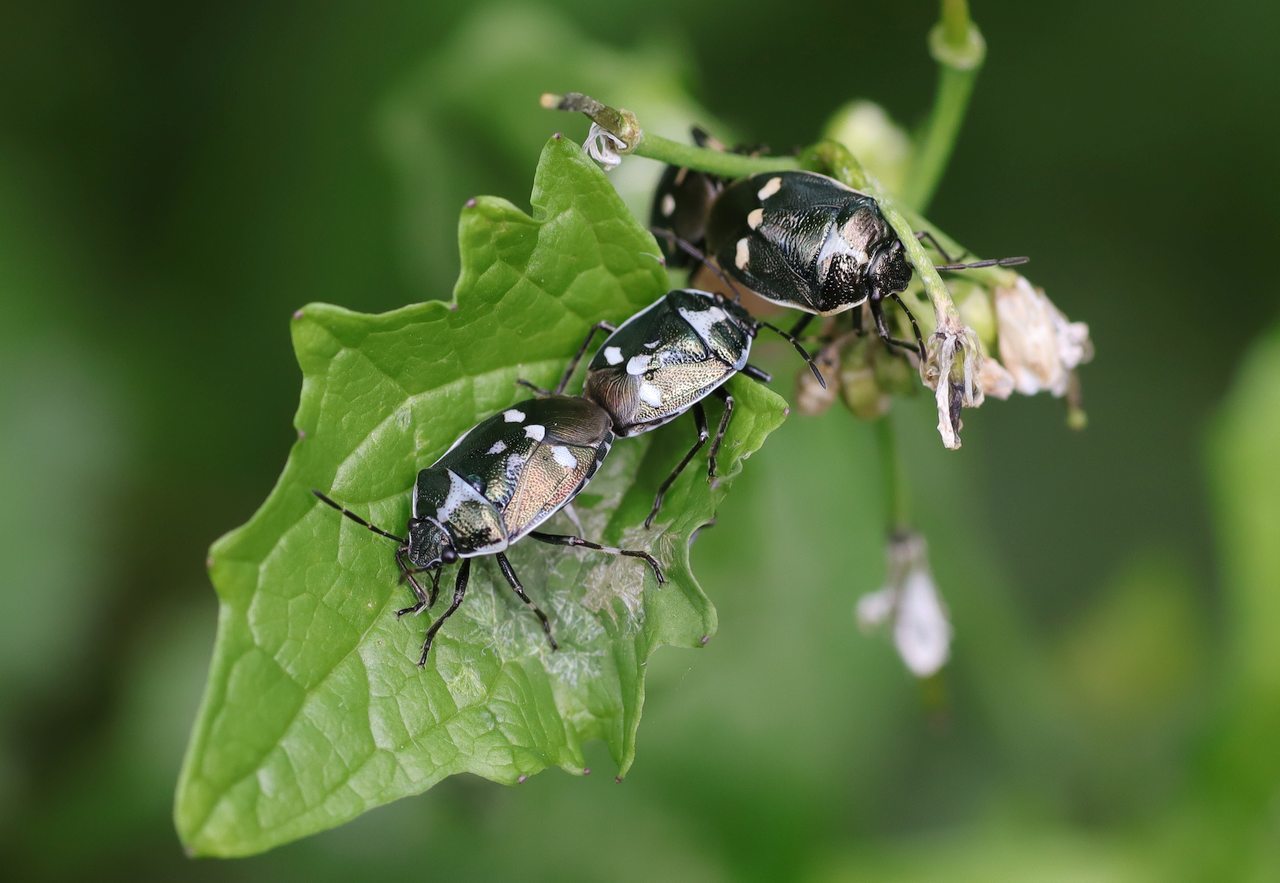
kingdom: Animalia
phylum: Arthropoda
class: Insecta
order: Hemiptera
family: Pentatomidae
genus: Eurydema
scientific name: Eurydema oleracea
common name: Cabbage bug
